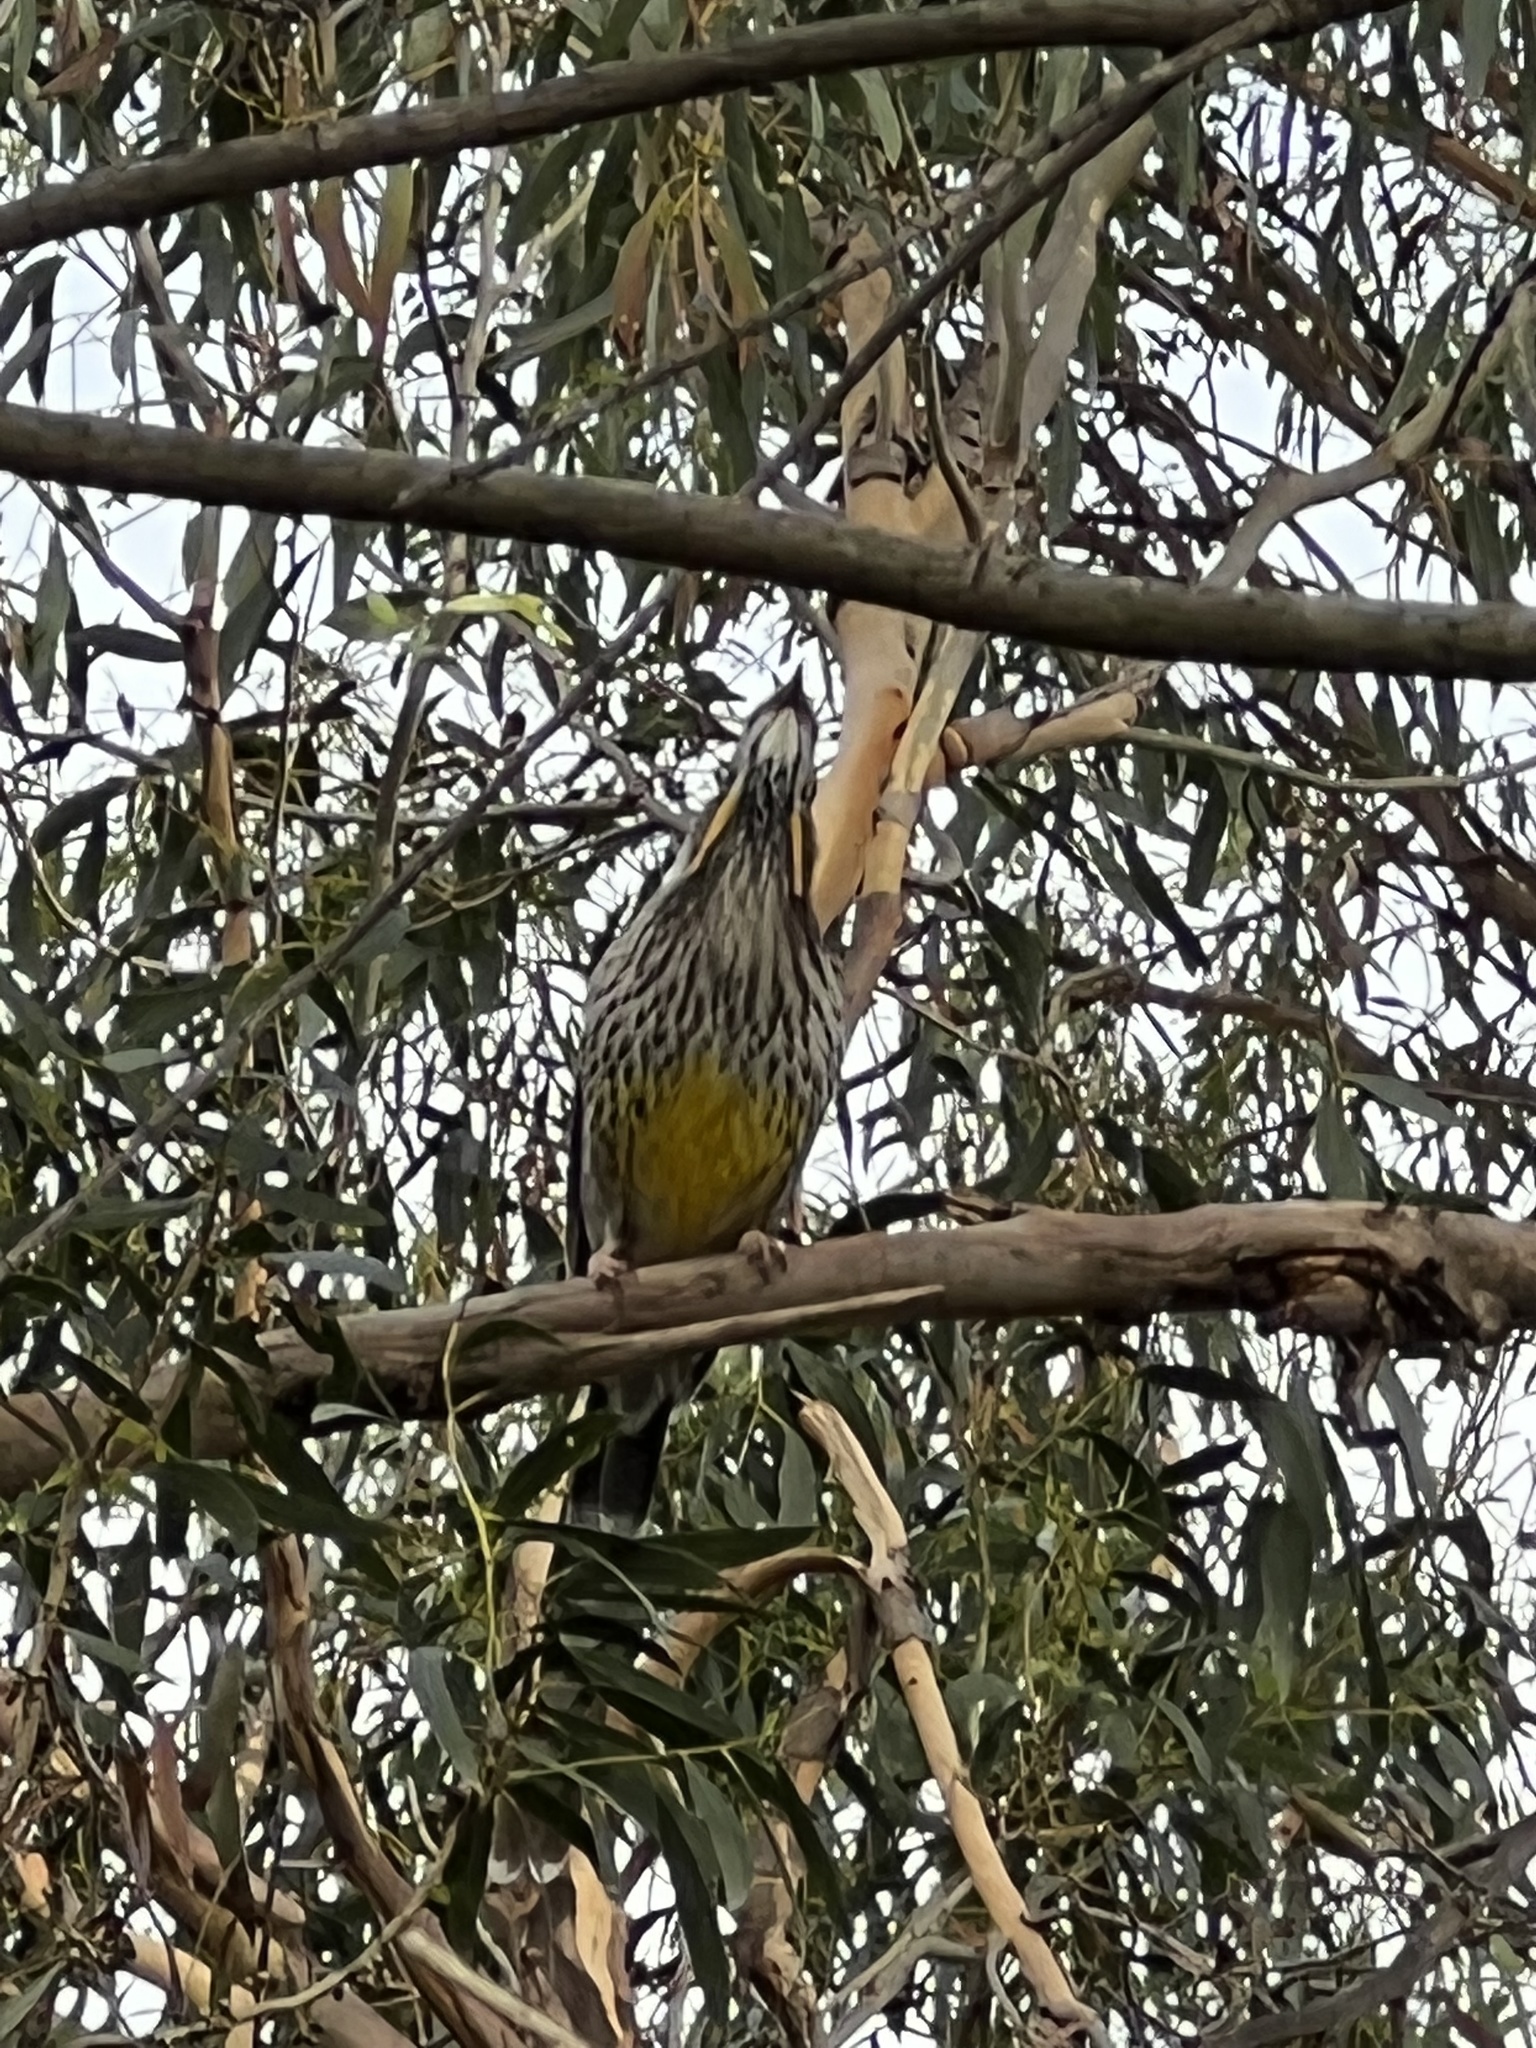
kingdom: Animalia
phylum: Chordata
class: Aves
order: Passeriformes
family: Meliphagidae
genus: Anthochaera
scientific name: Anthochaera paradoxa
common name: Yellow wattlebird
